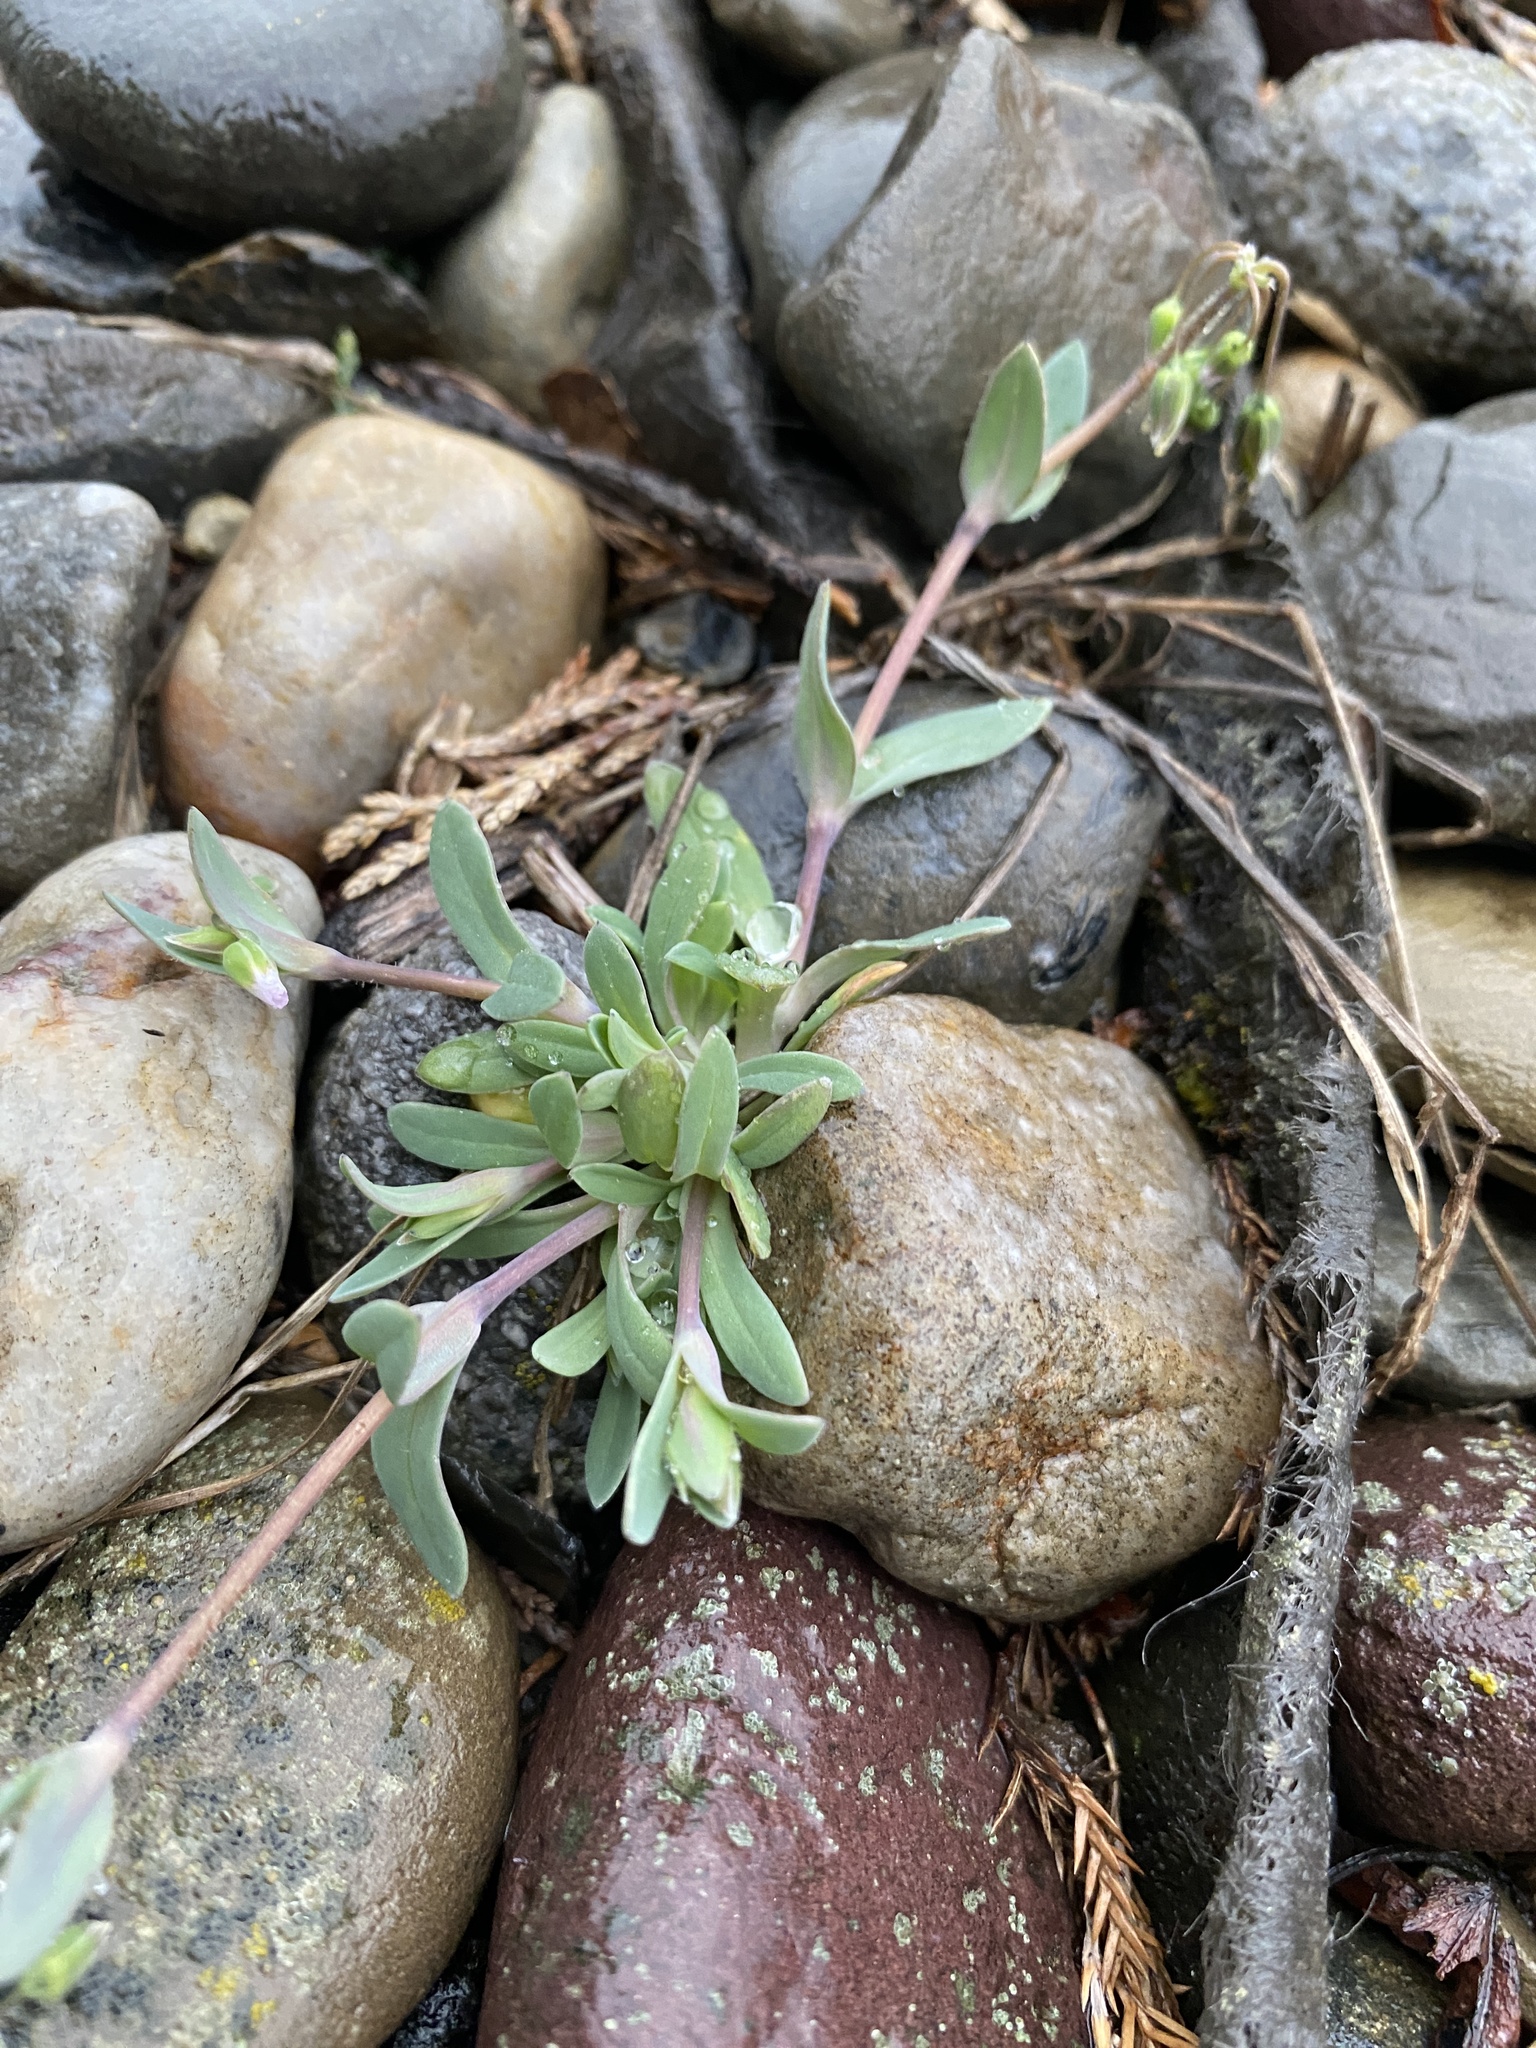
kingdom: Plantae
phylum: Tracheophyta
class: Magnoliopsida
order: Caryophyllales
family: Caryophyllaceae
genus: Holosteum
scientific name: Holosteum umbellatum
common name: Jagged chickweed
